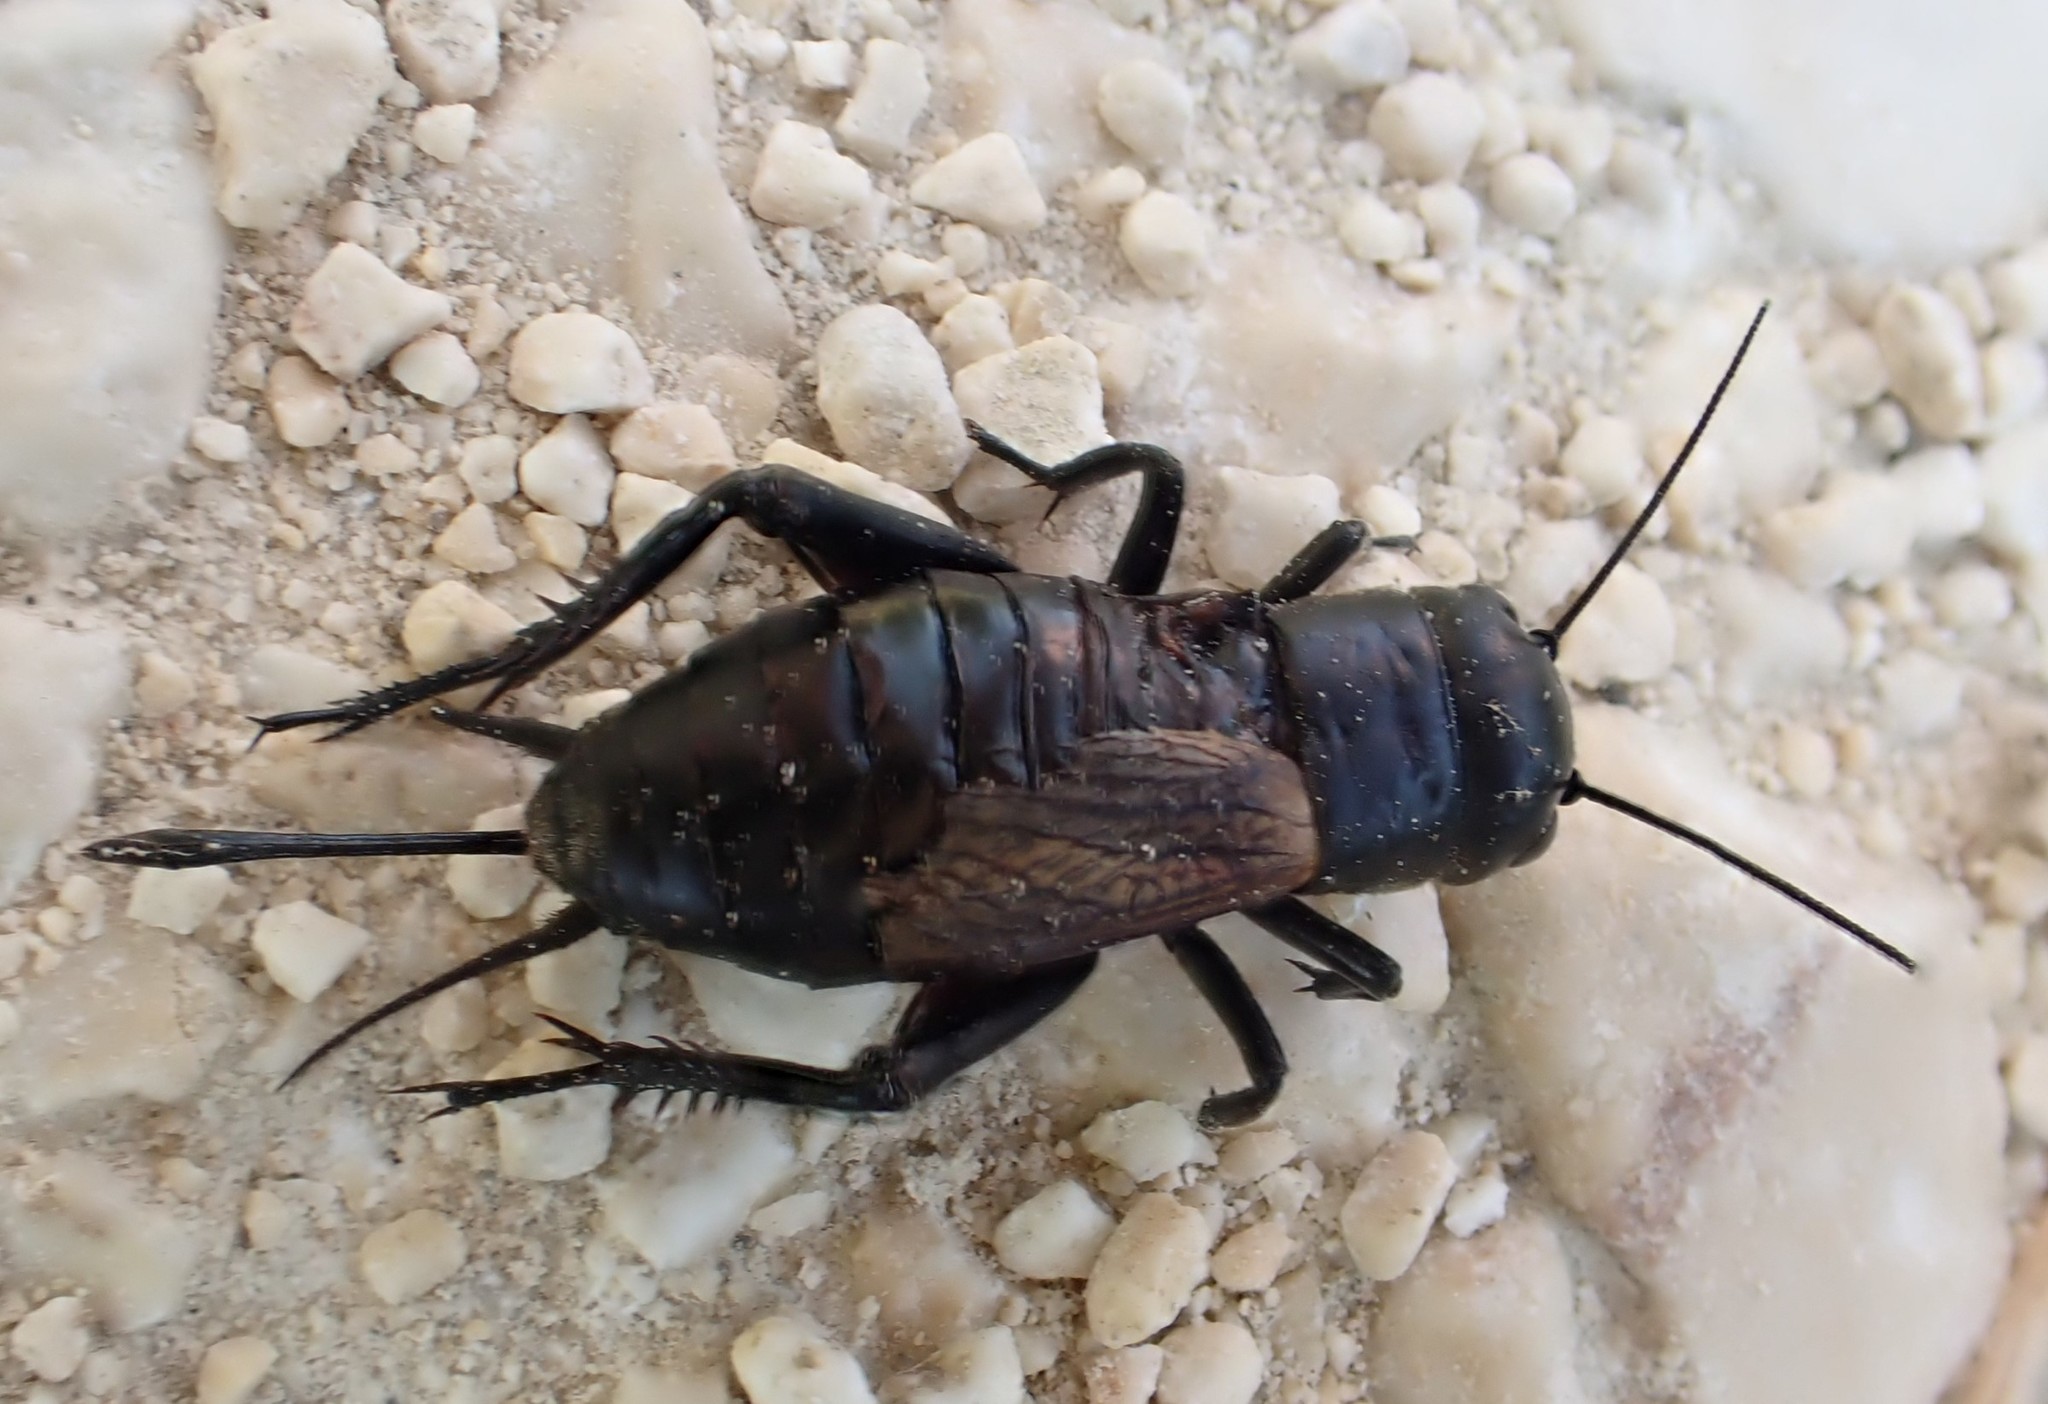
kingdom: Animalia
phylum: Arthropoda
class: Insecta
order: Orthoptera
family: Gryllidae
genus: Gryllus
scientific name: Gryllus campestris
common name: Field cricket
